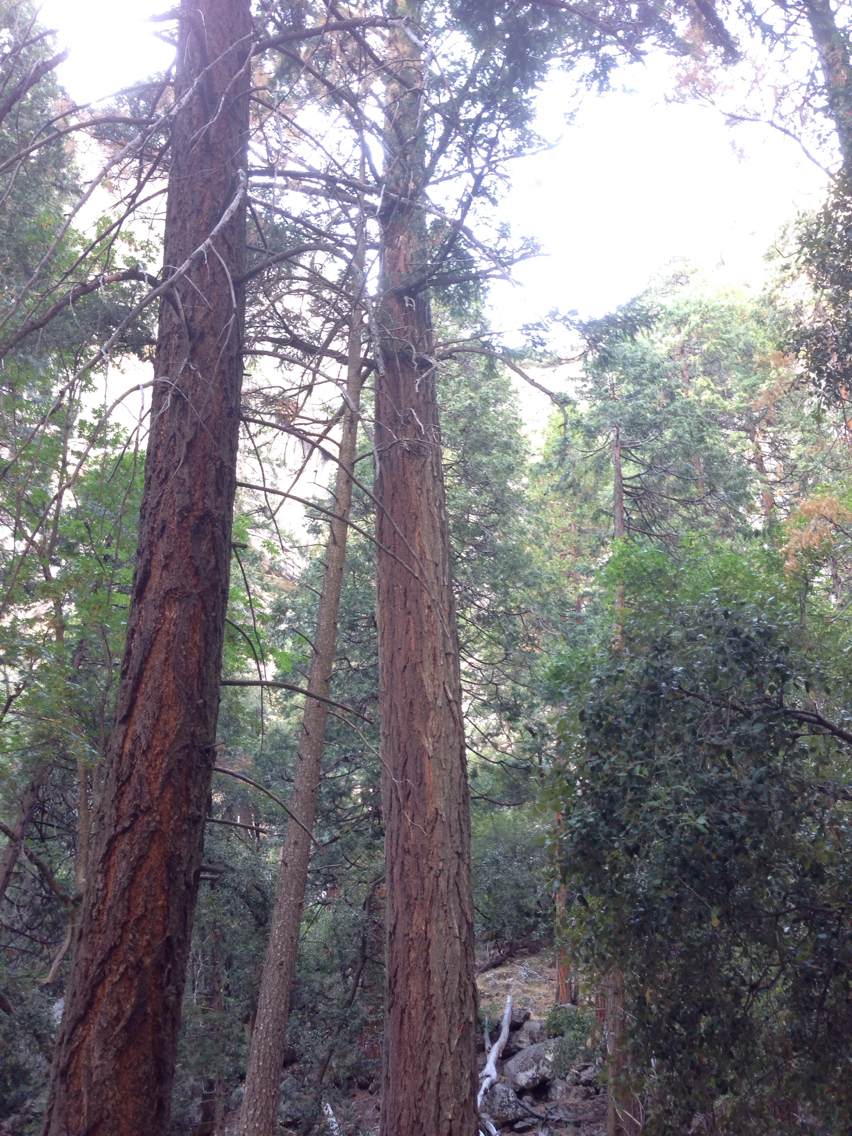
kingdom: Plantae
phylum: Tracheophyta
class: Pinopsida
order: Pinales
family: Pinaceae
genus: Pseudotsuga
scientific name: Pseudotsuga menziesii
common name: Douglas fir
